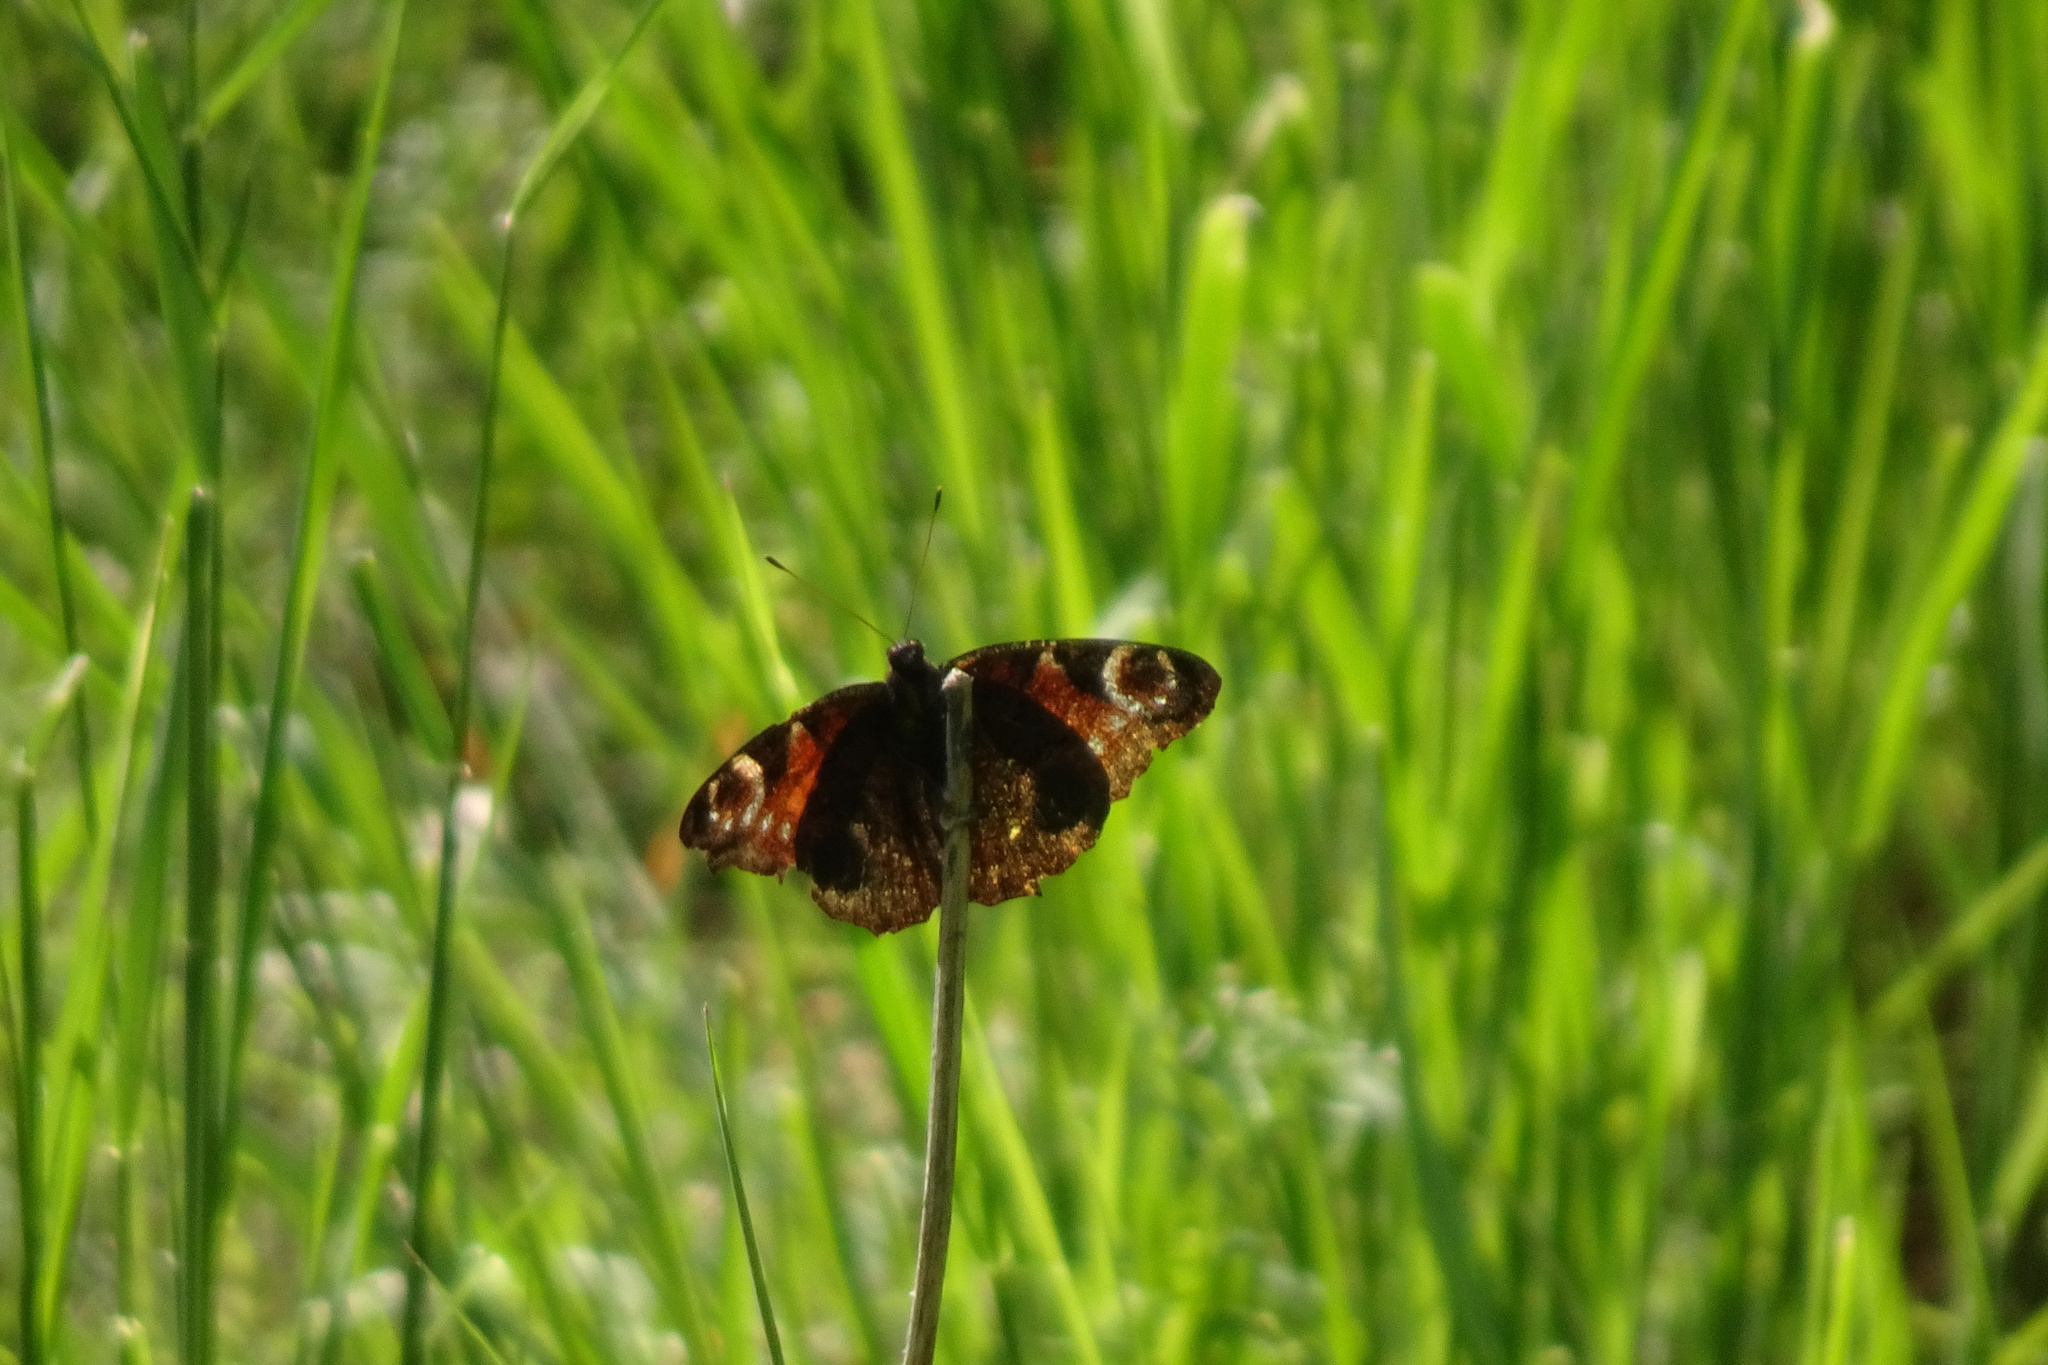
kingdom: Animalia
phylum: Arthropoda
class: Insecta
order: Lepidoptera
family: Nymphalidae
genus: Aglais
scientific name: Aglais io
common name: Peacock
